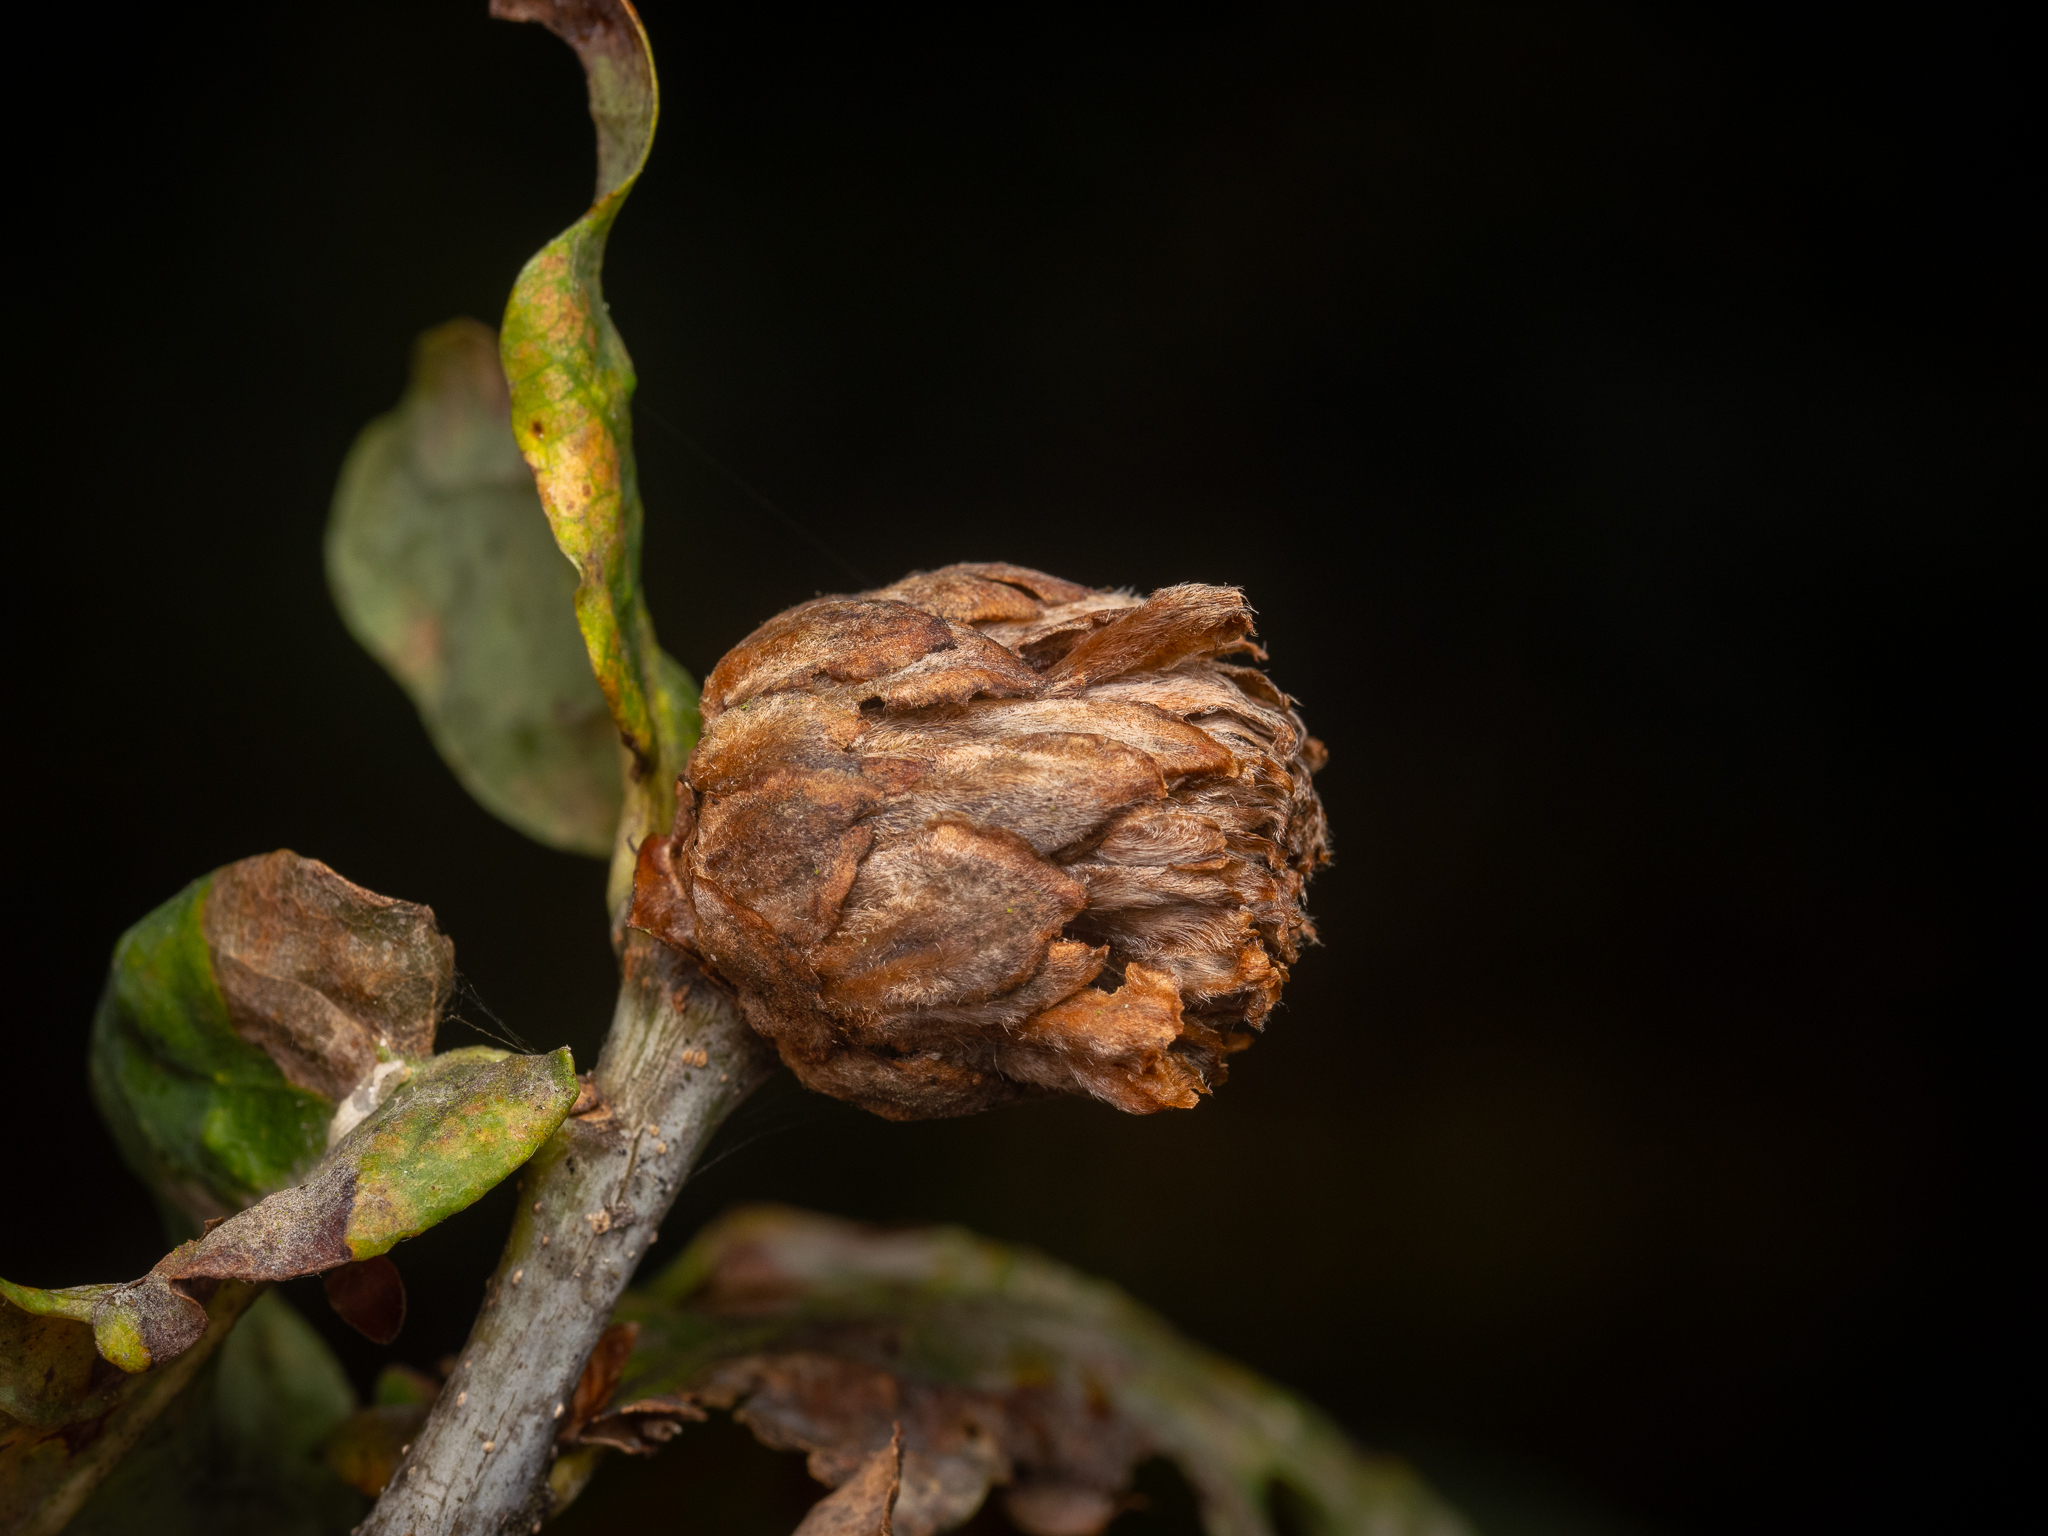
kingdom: Animalia
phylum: Arthropoda
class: Insecta
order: Hymenoptera
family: Cynipidae
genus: Andricus
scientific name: Andricus foecundatrix
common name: Artichoke gall
